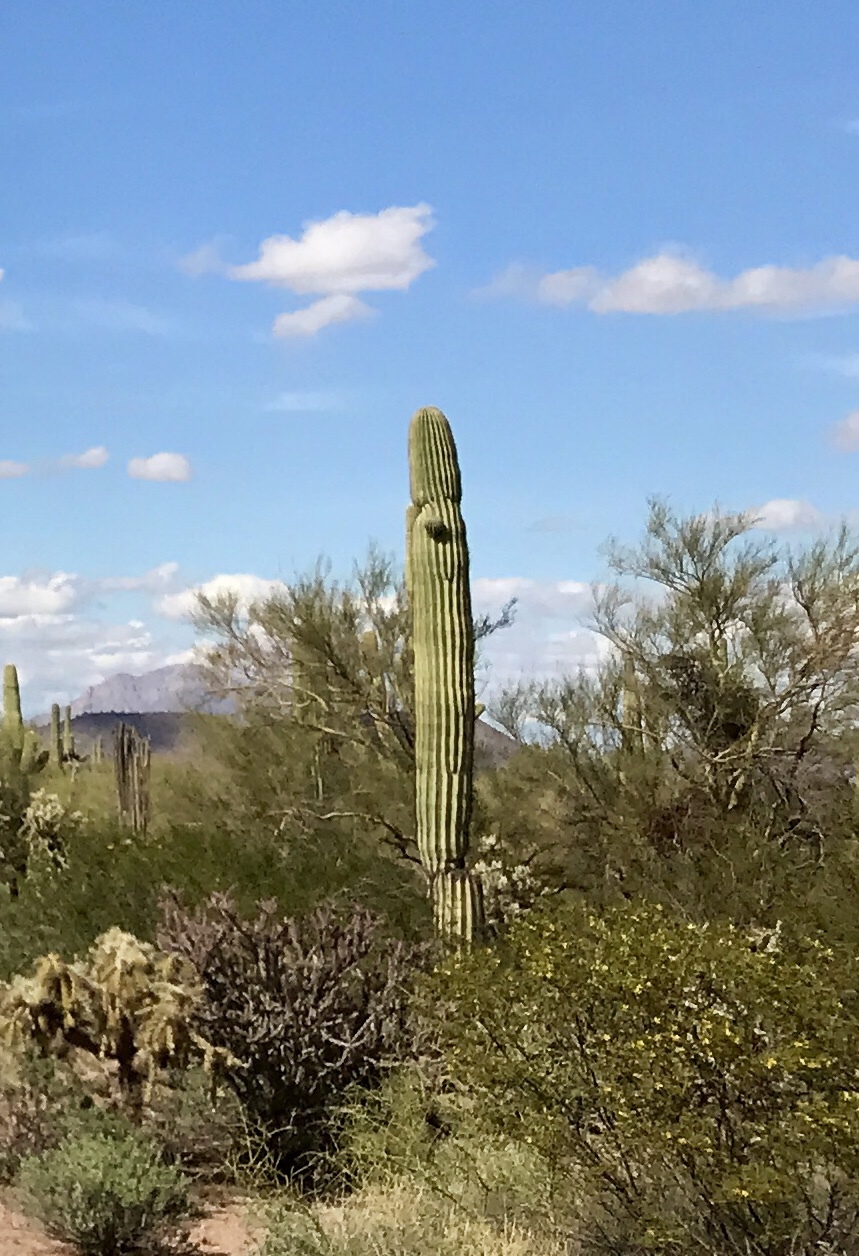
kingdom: Plantae
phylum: Tracheophyta
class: Magnoliopsida
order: Caryophyllales
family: Cactaceae
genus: Carnegiea
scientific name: Carnegiea gigantea
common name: Saguaro
